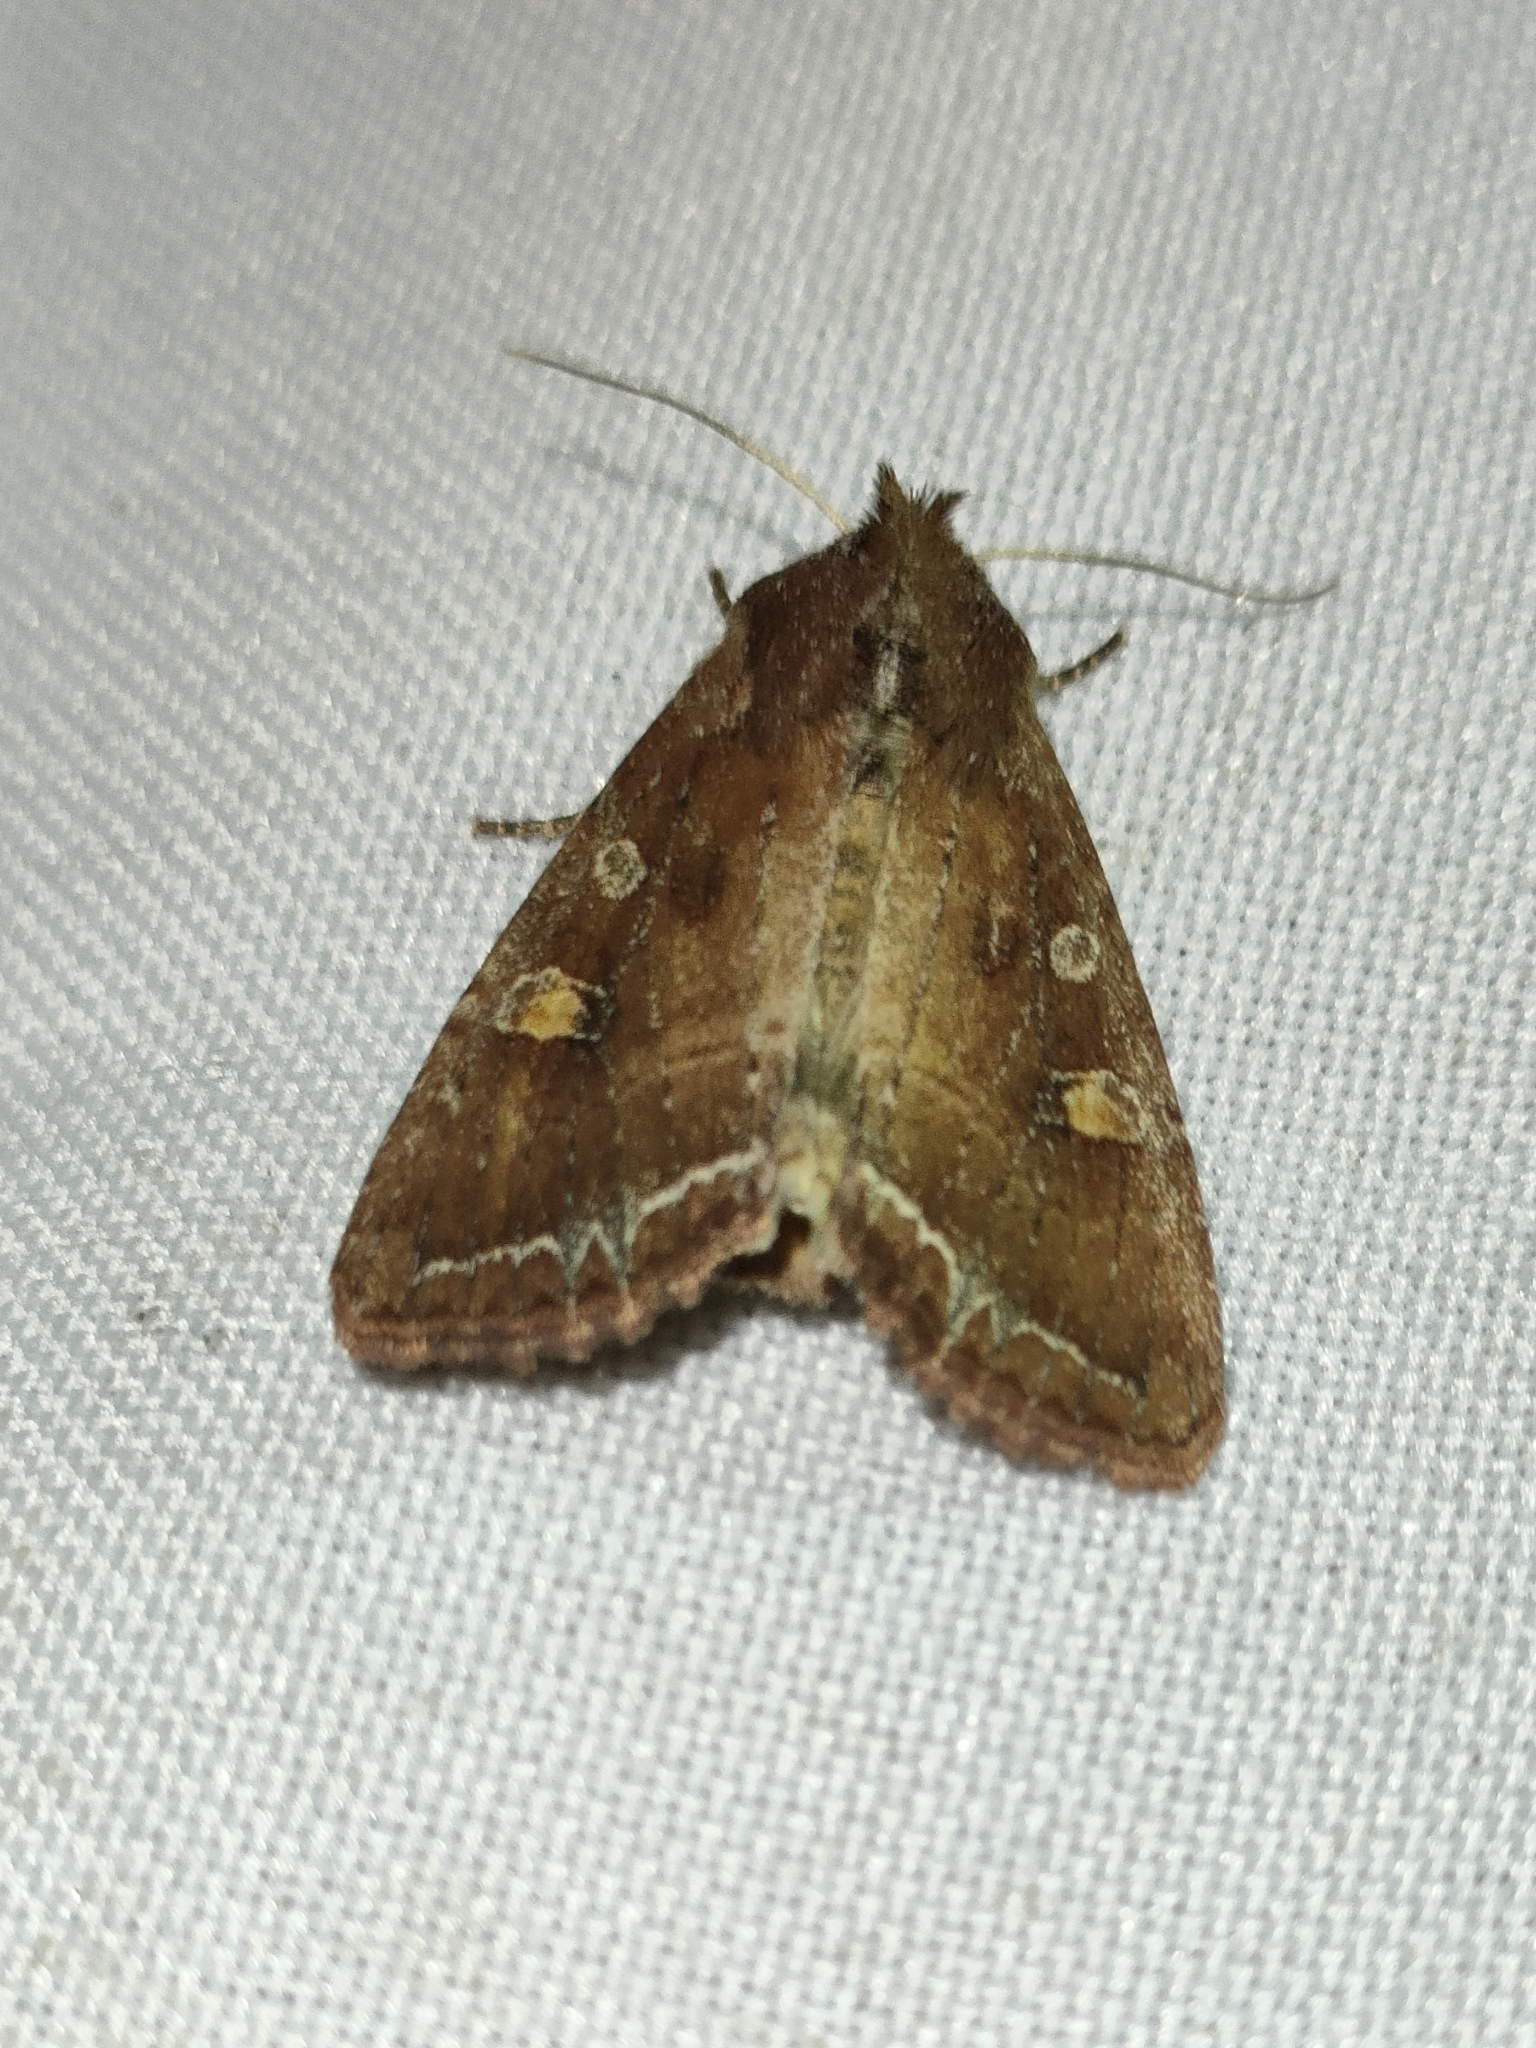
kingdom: Animalia
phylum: Arthropoda
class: Insecta
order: Lepidoptera
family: Noctuidae
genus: Lacanobia
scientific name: Lacanobia oleracea
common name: Bright-line brown-eye
